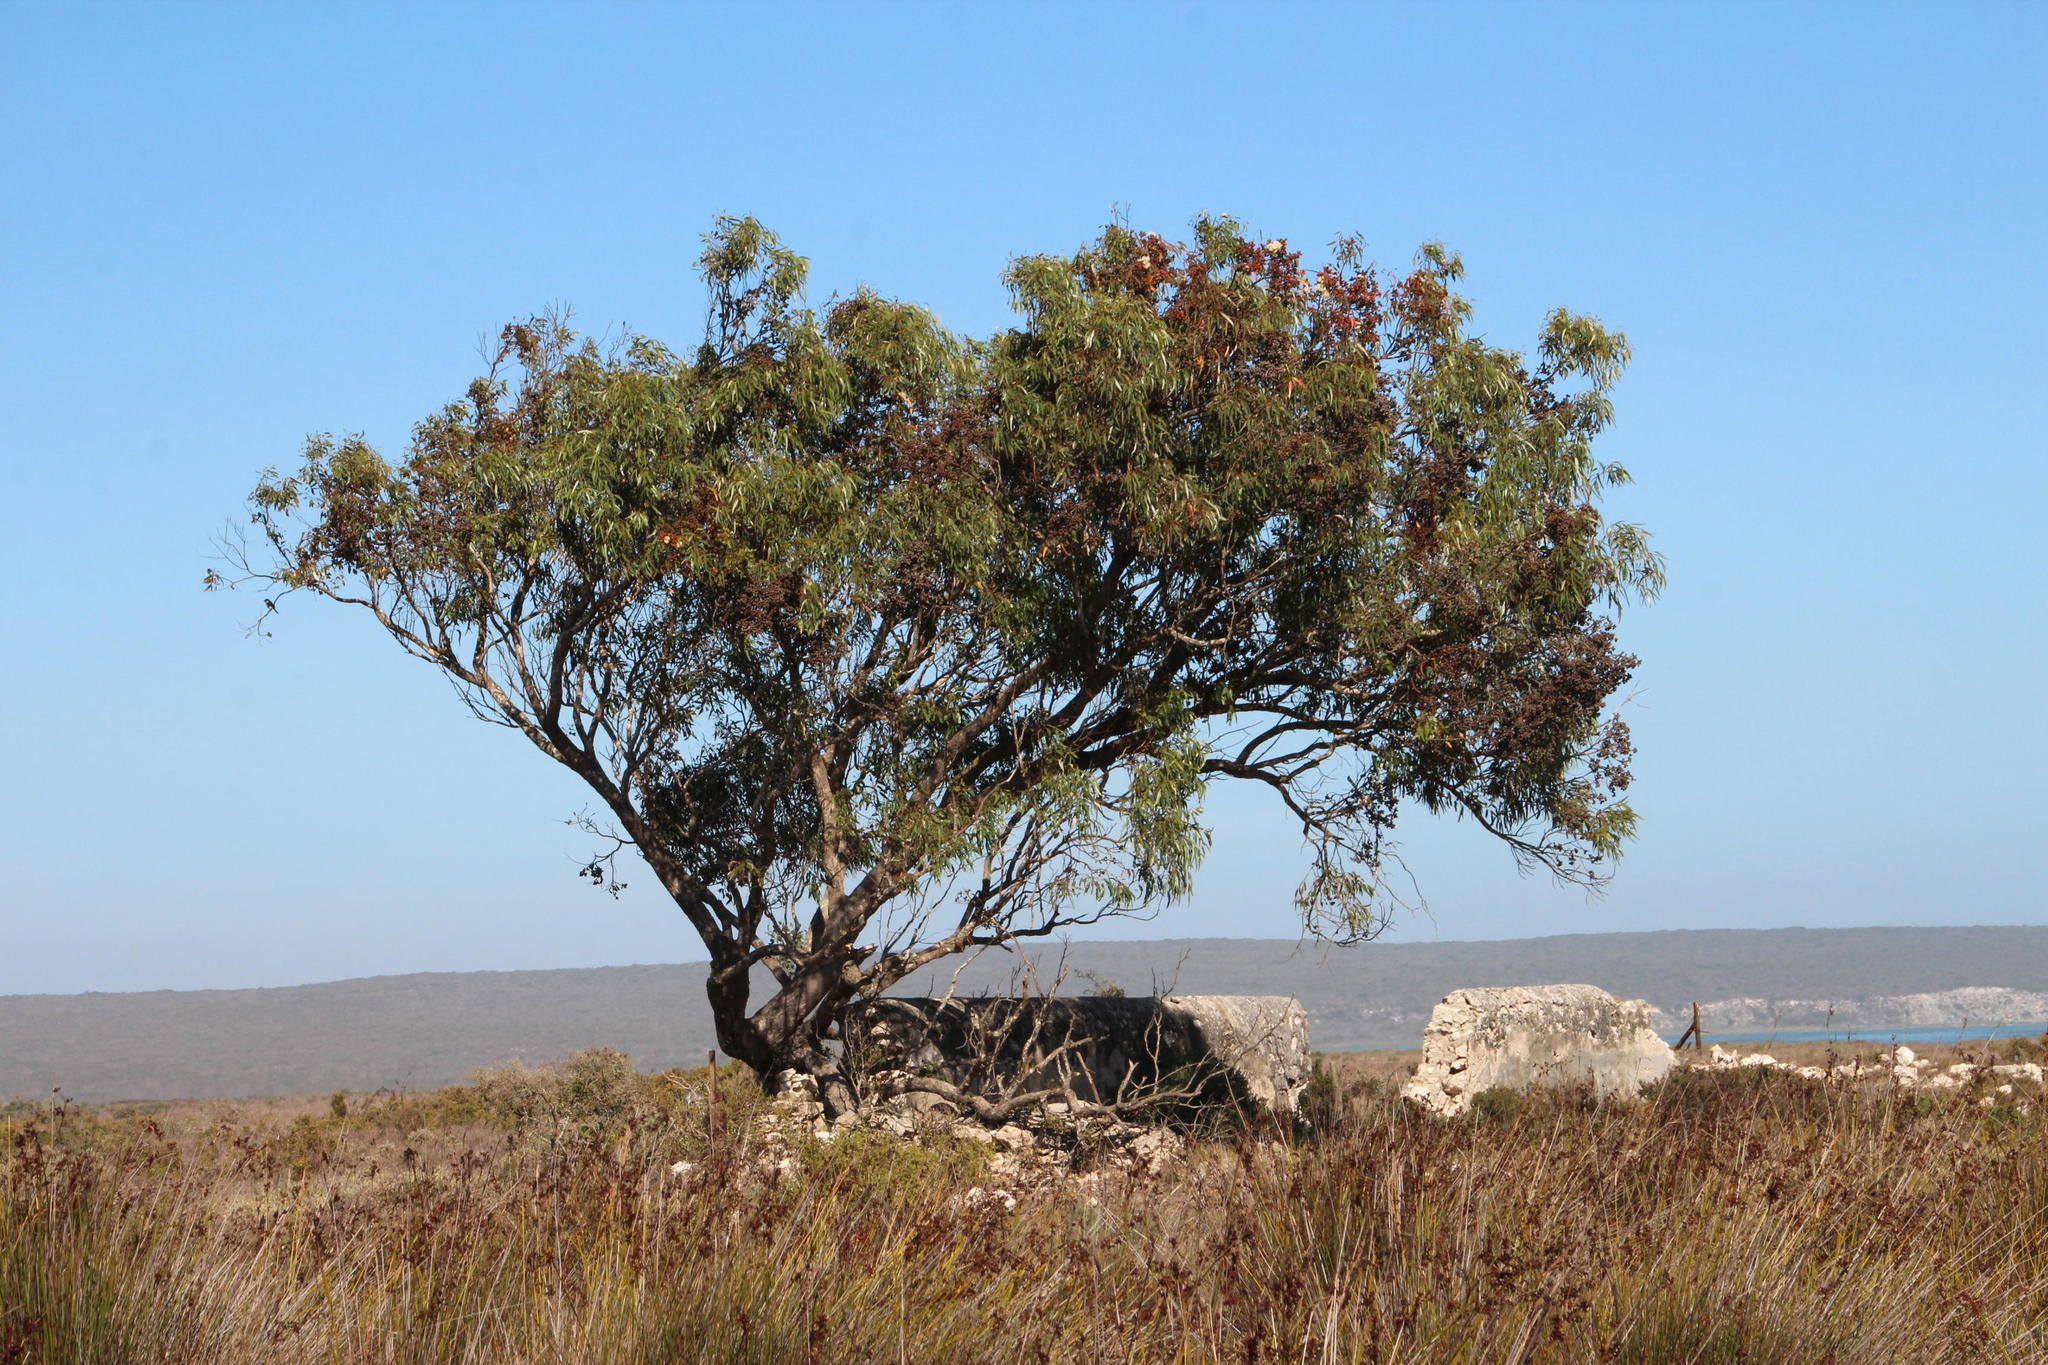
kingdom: Plantae
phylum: Tracheophyta
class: Magnoliopsida
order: Fabales
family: Fabaceae
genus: Acacia
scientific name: Acacia cyclops
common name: Coastal wattle
